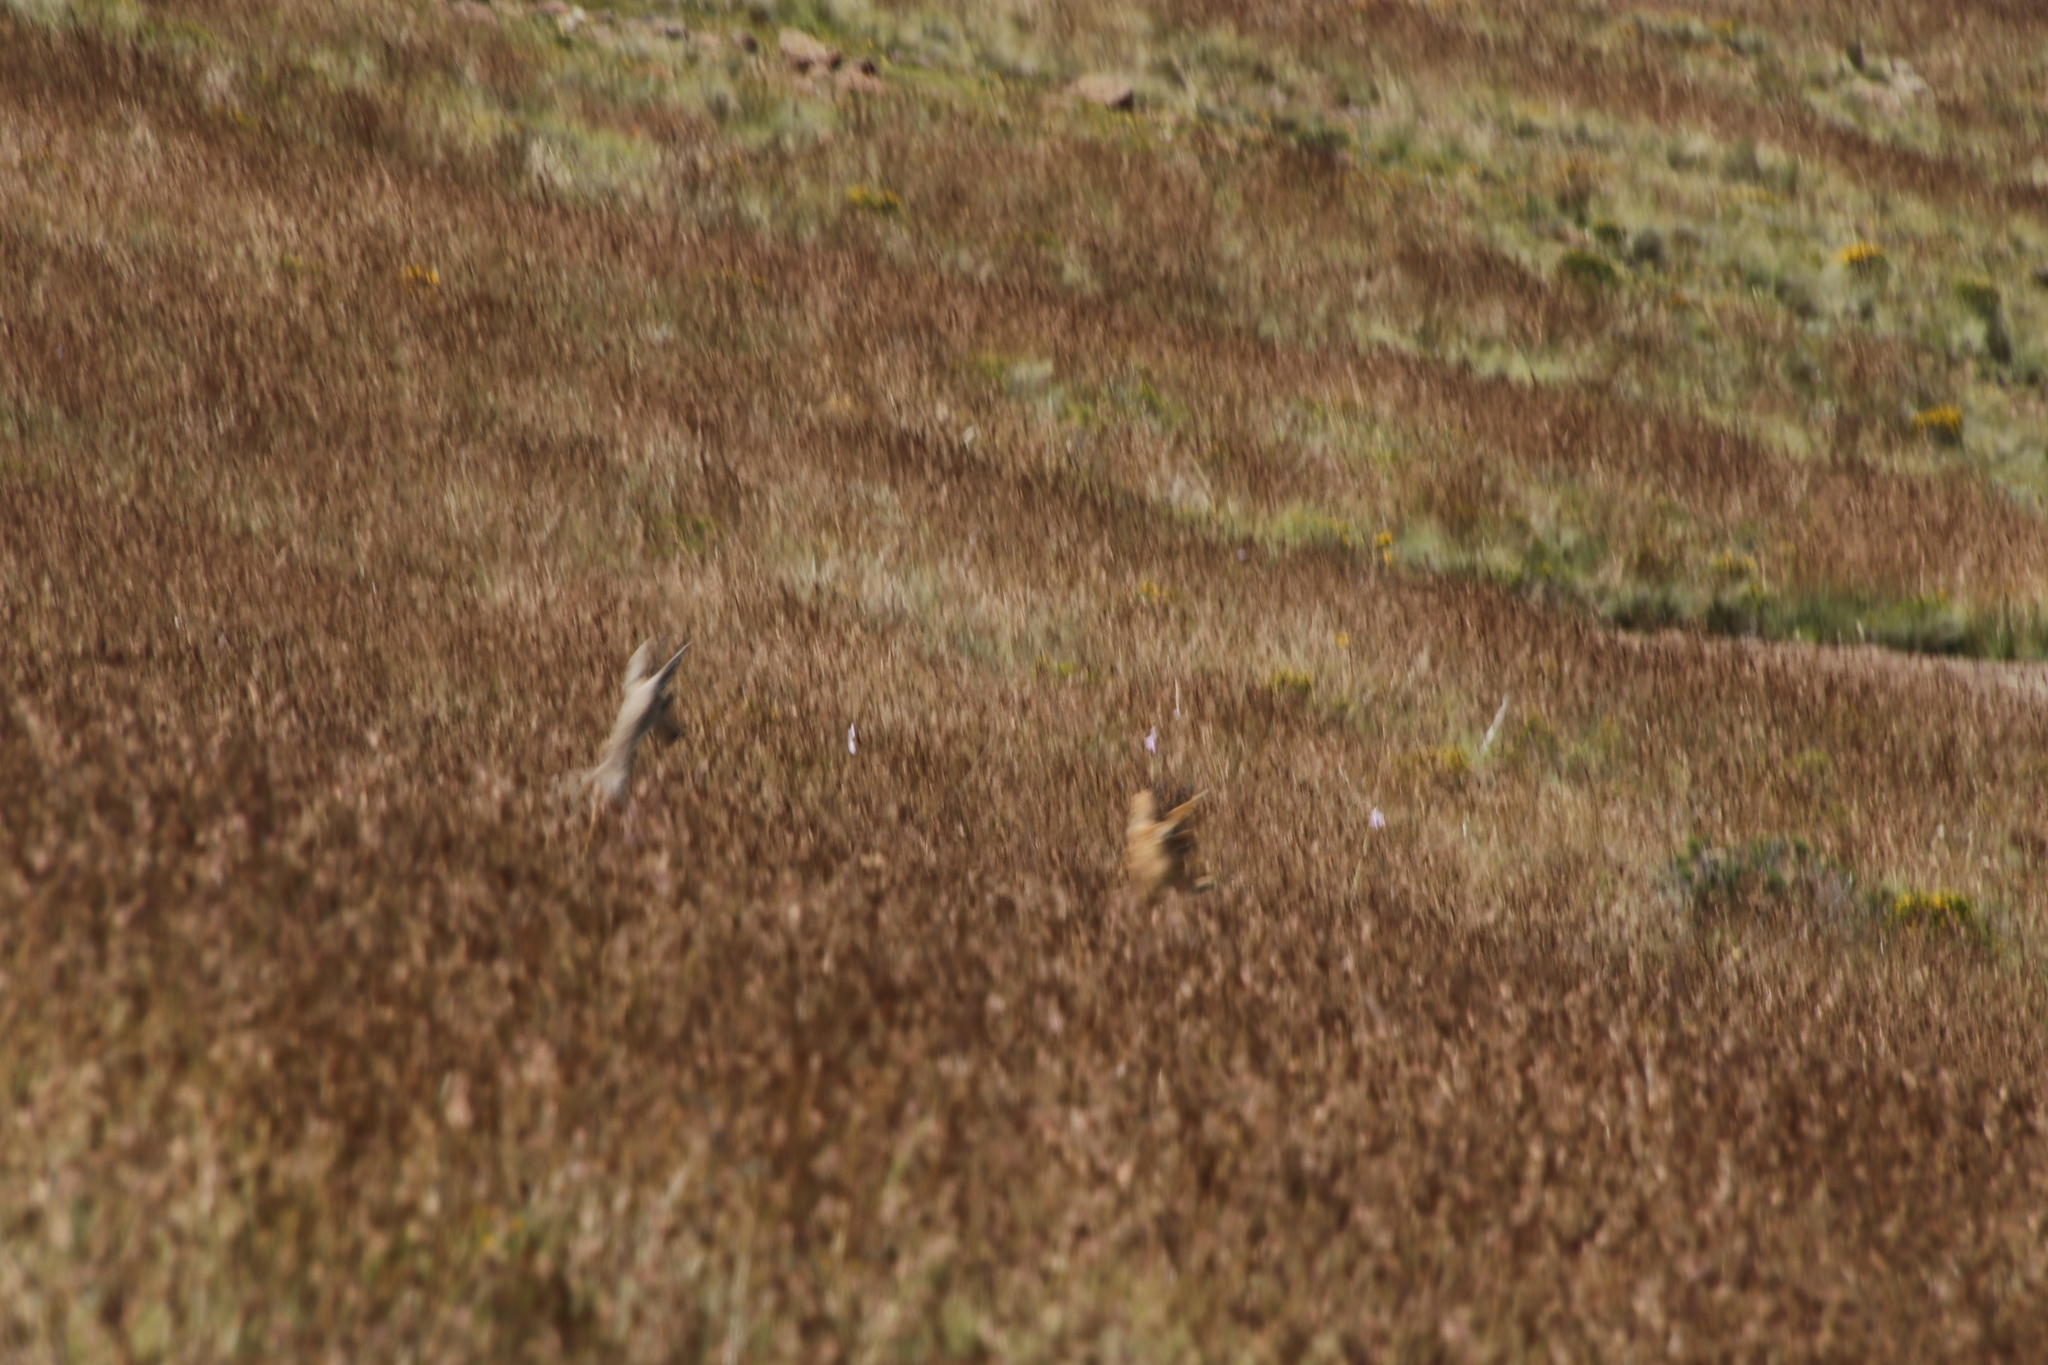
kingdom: Animalia
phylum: Chordata
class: Mammalia
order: Artiodactyla
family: Bovidae
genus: Pelea
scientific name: Pelea capreolus
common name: Common rhebok
